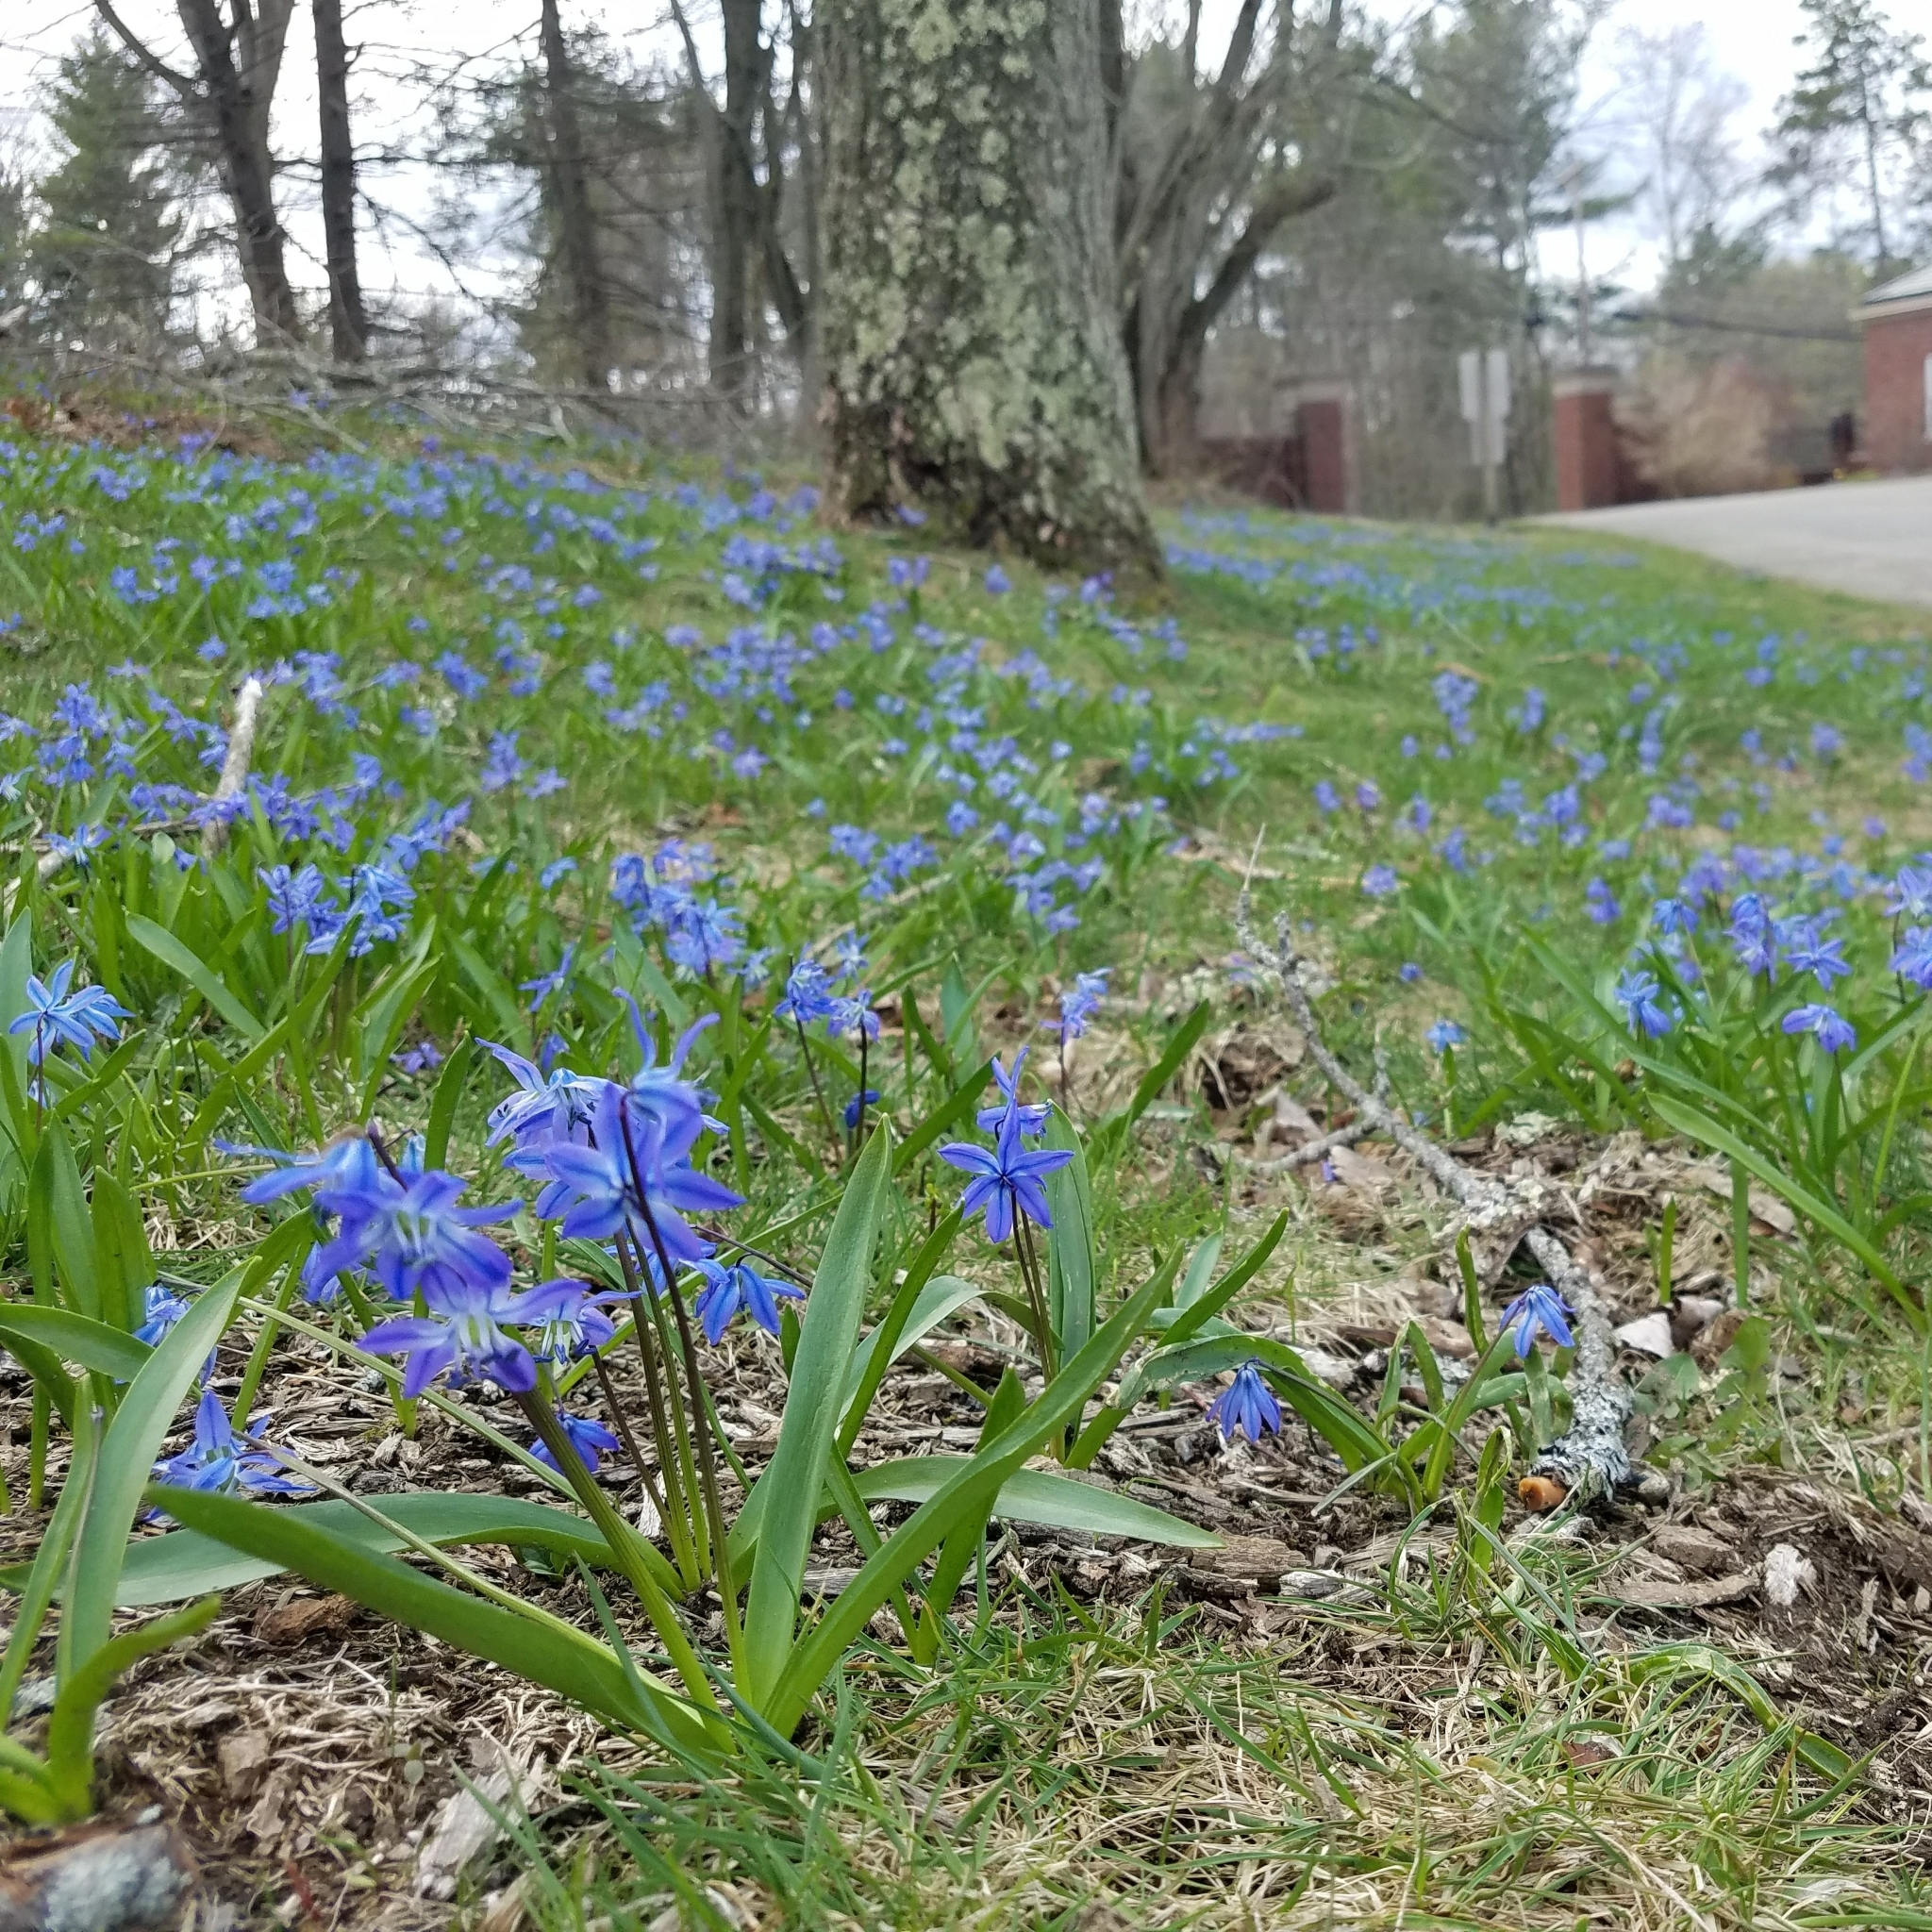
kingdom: Plantae
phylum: Tracheophyta
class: Liliopsida
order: Asparagales
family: Asparagaceae
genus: Scilla
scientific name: Scilla siberica
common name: Siberian squill
